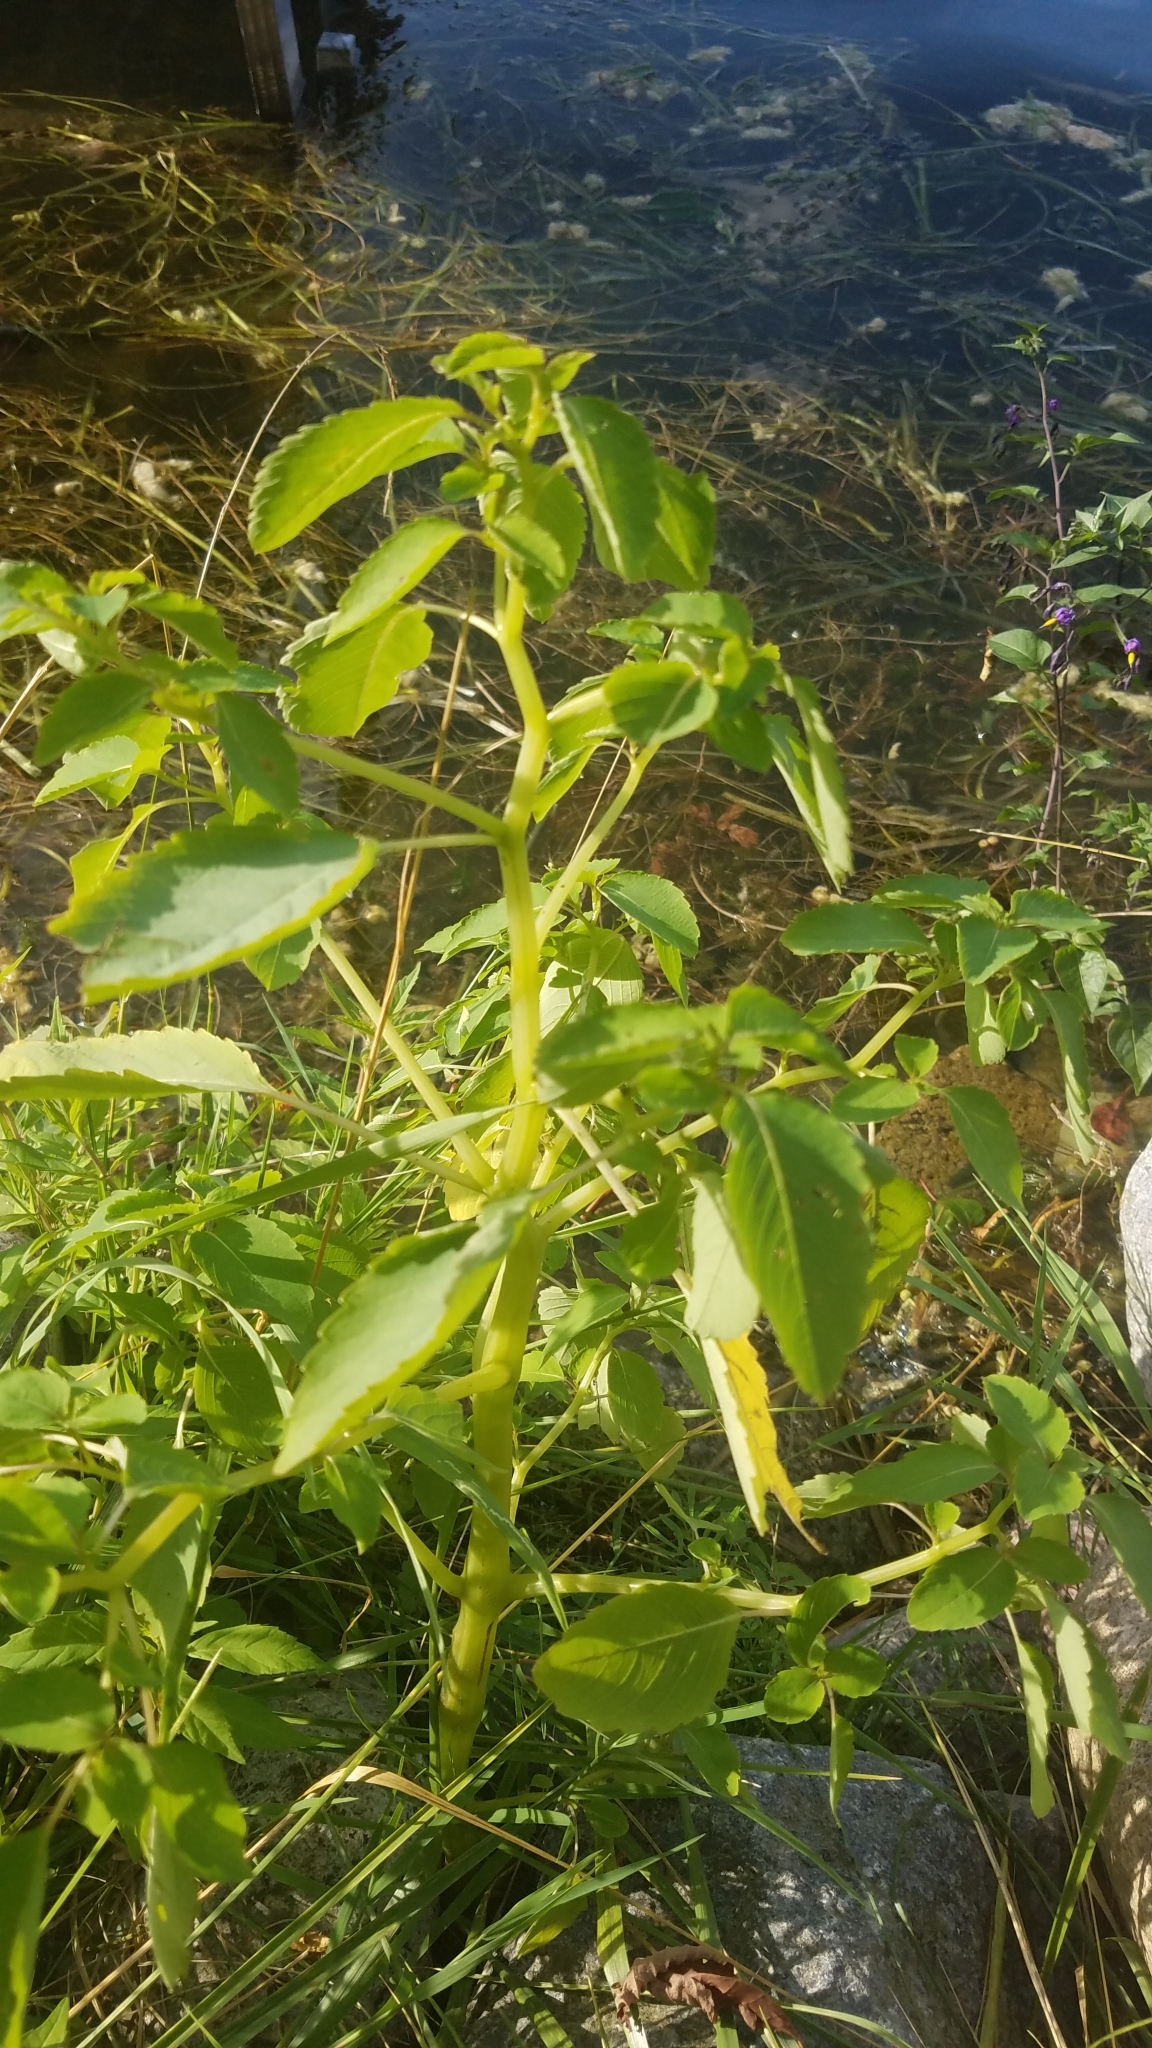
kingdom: Plantae
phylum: Tracheophyta
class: Magnoliopsida
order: Ericales
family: Balsaminaceae
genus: Impatiens
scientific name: Impatiens pallida
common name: Pale snapweed
